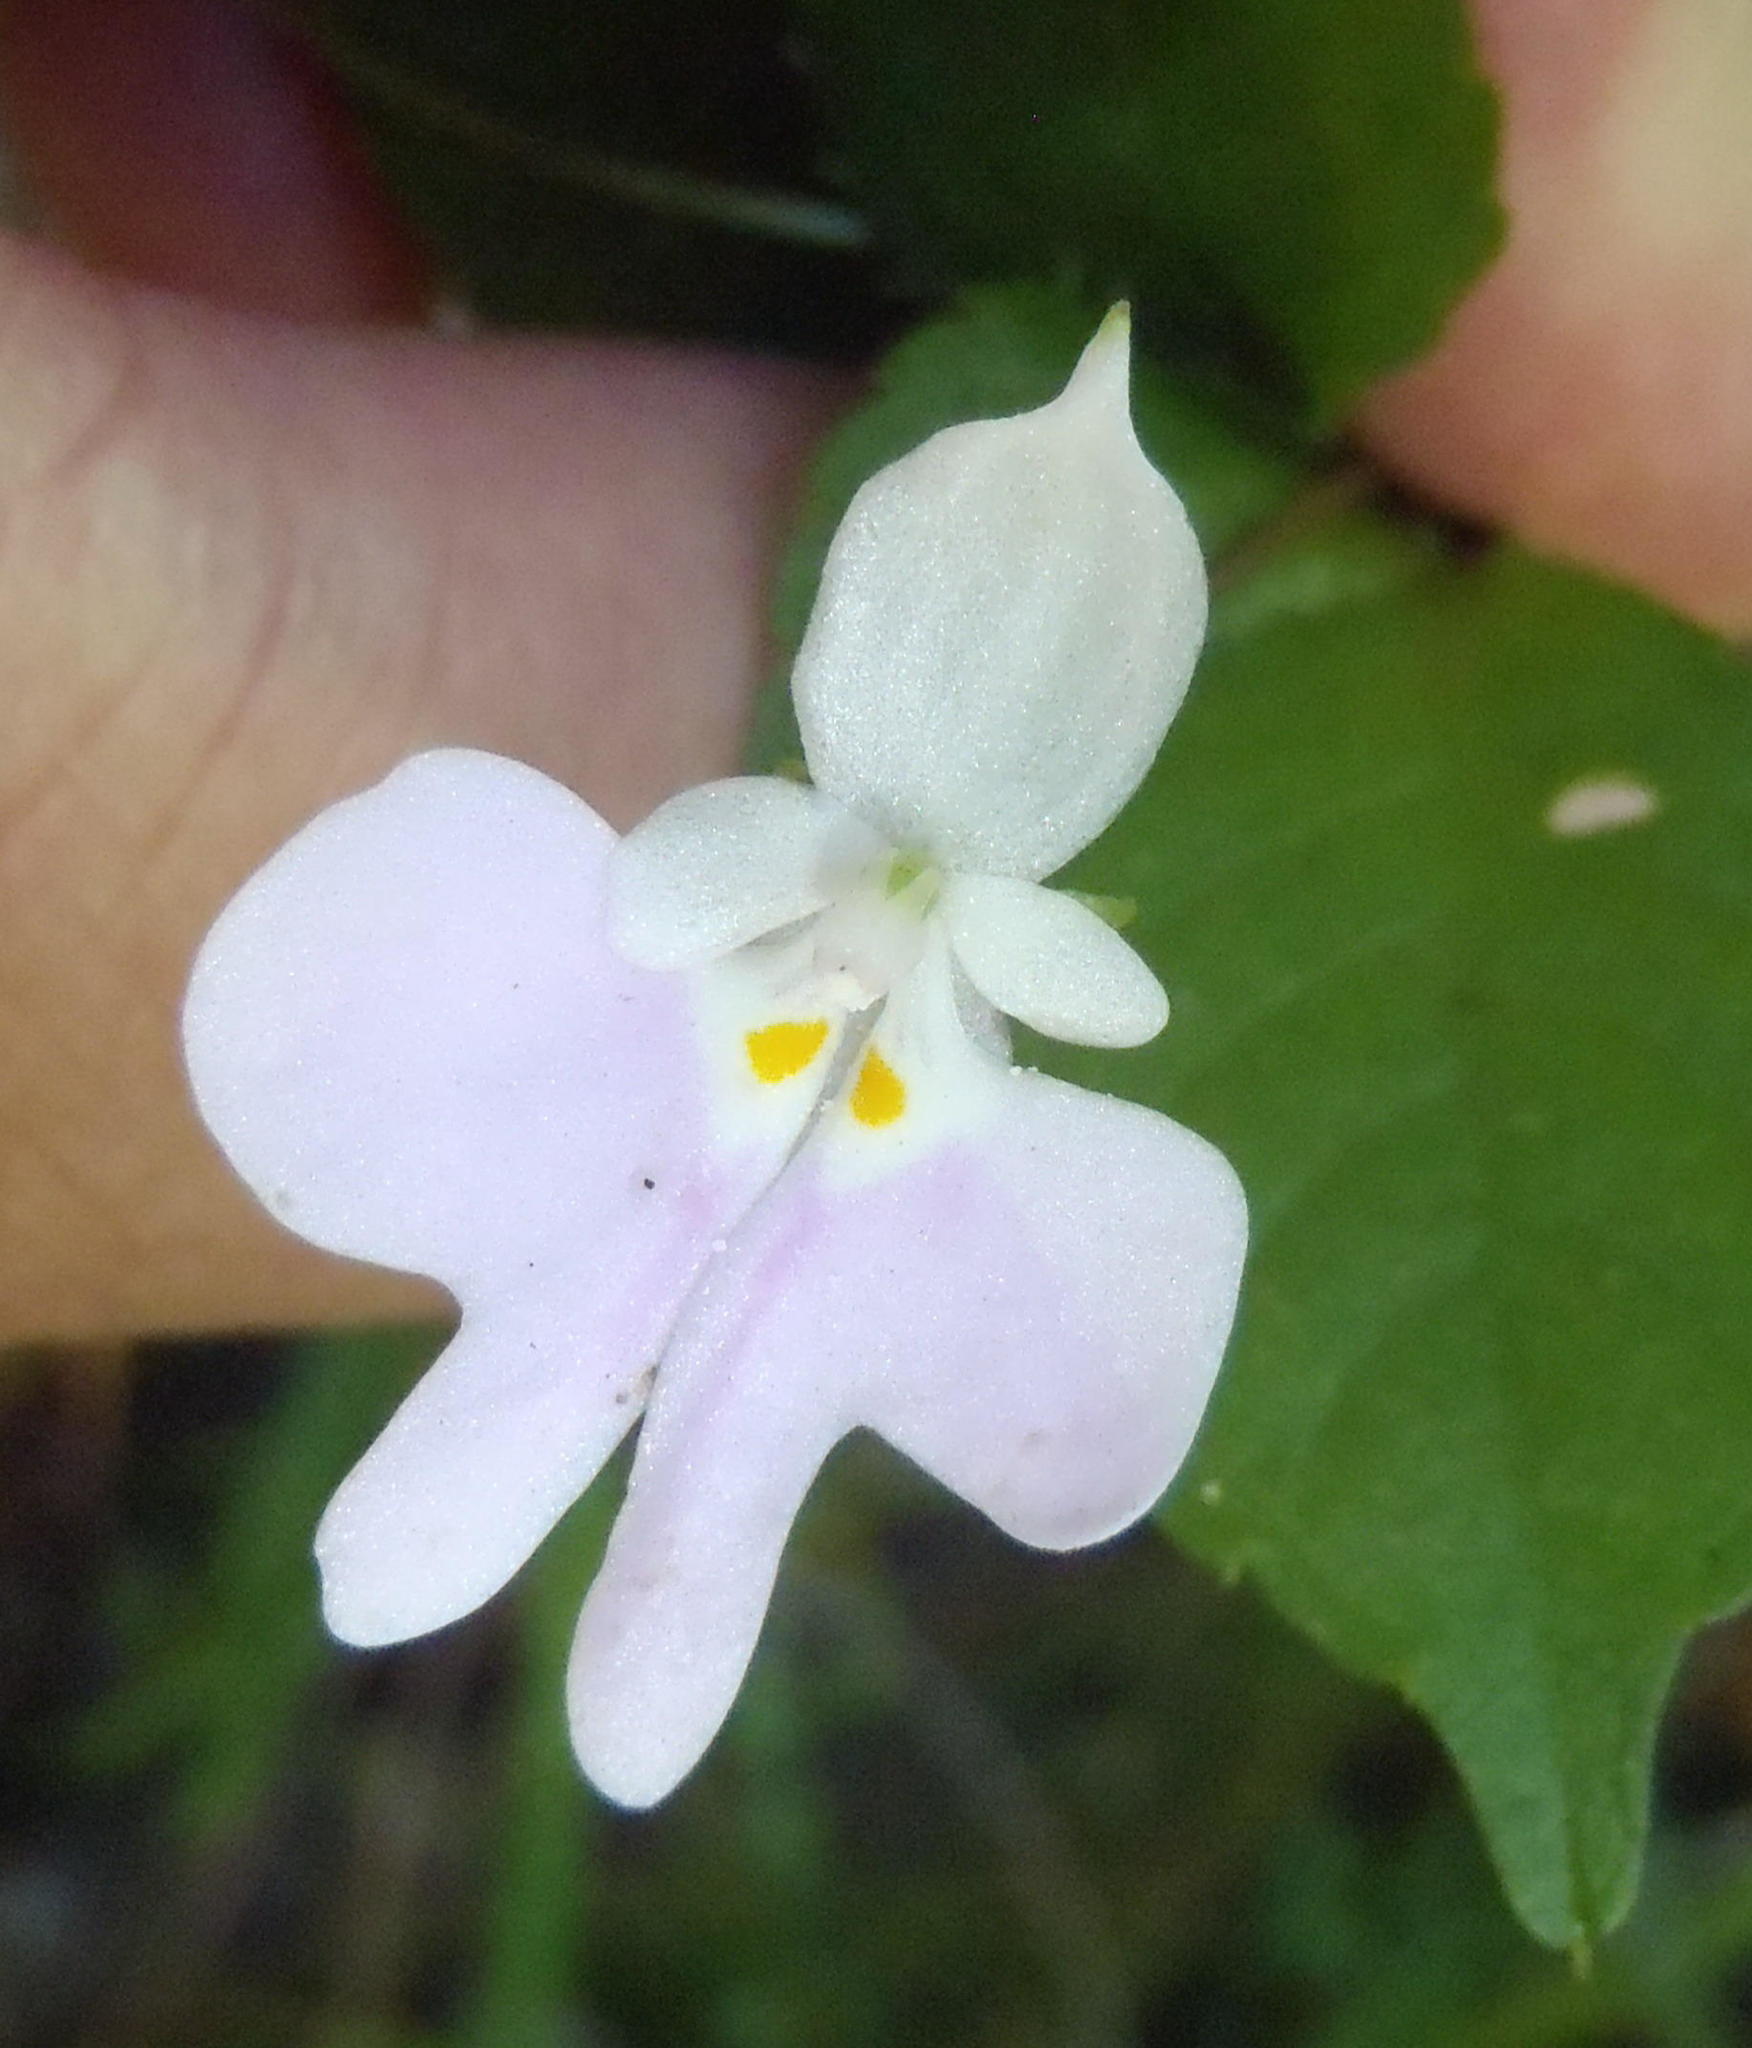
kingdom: Plantae
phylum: Tracheophyta
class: Magnoliopsida
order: Ericales
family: Balsaminaceae
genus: Impatiens
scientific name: Impatiens hochstetteri
